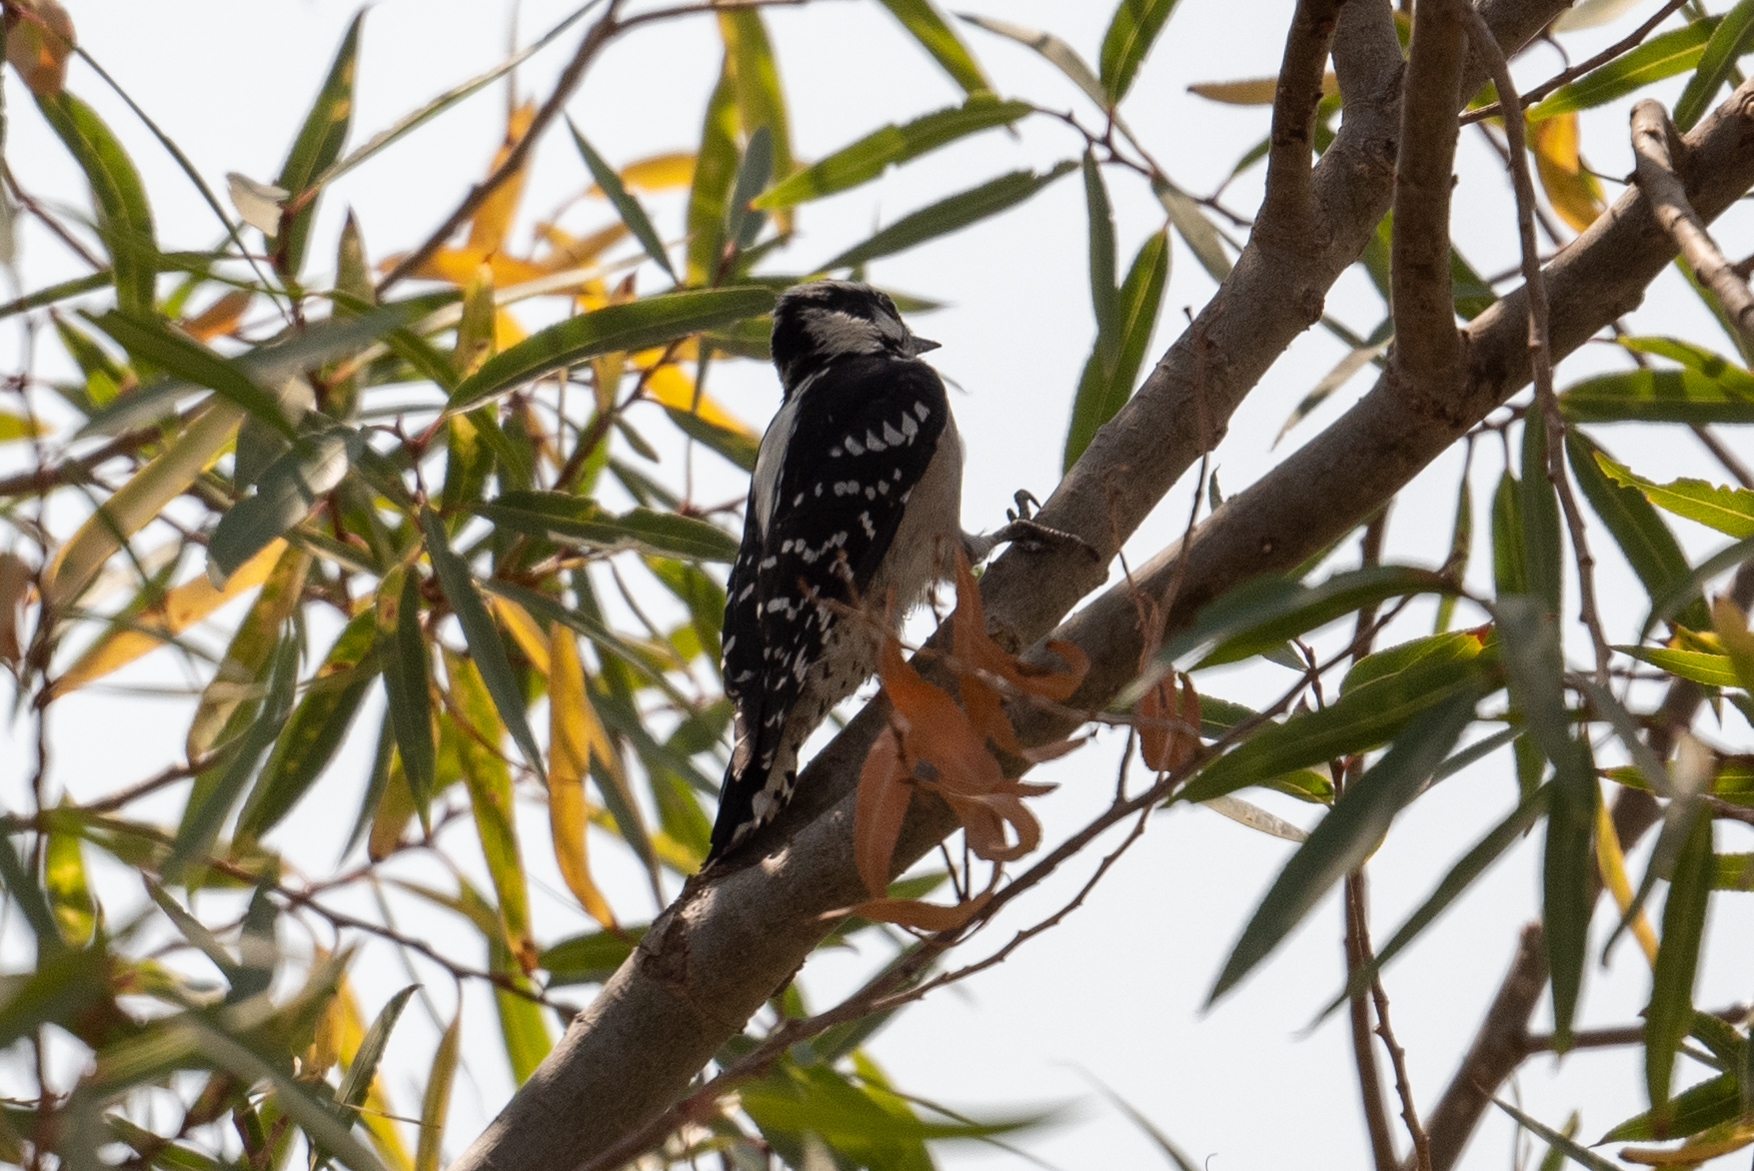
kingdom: Animalia
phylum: Chordata
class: Aves
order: Piciformes
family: Picidae
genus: Dryobates
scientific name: Dryobates pubescens
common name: Downy woodpecker
